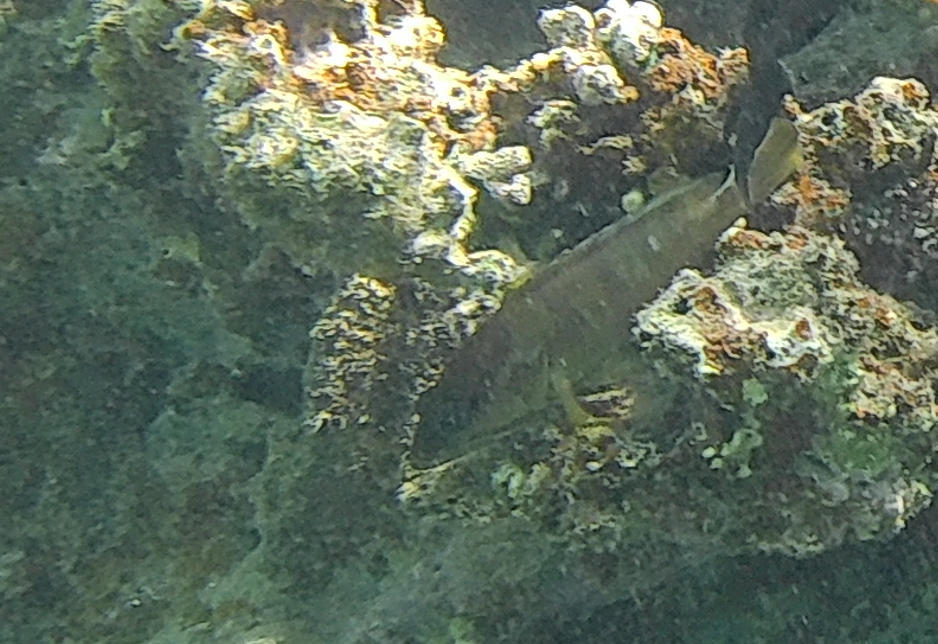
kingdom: Animalia
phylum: Chordata
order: Perciformes
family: Serranidae
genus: Epinephelus
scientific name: Epinephelus fasciatus
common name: Blacktip grouper
